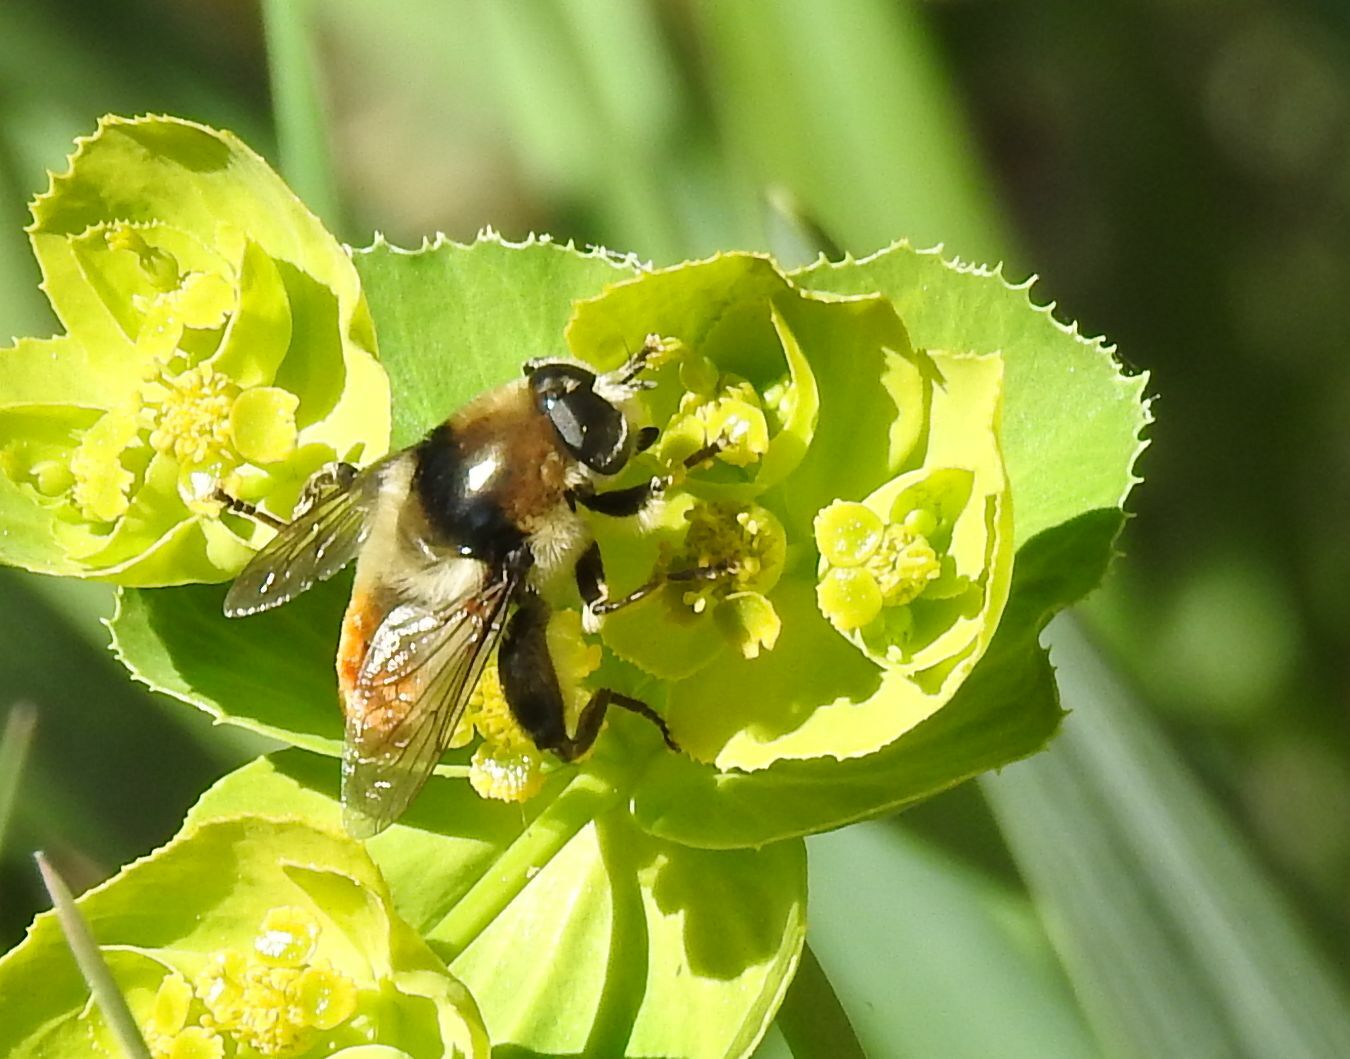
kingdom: Animalia
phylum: Arthropoda
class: Insecta
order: Diptera
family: Syrphidae
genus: Merodon
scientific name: Merodon clavipes
